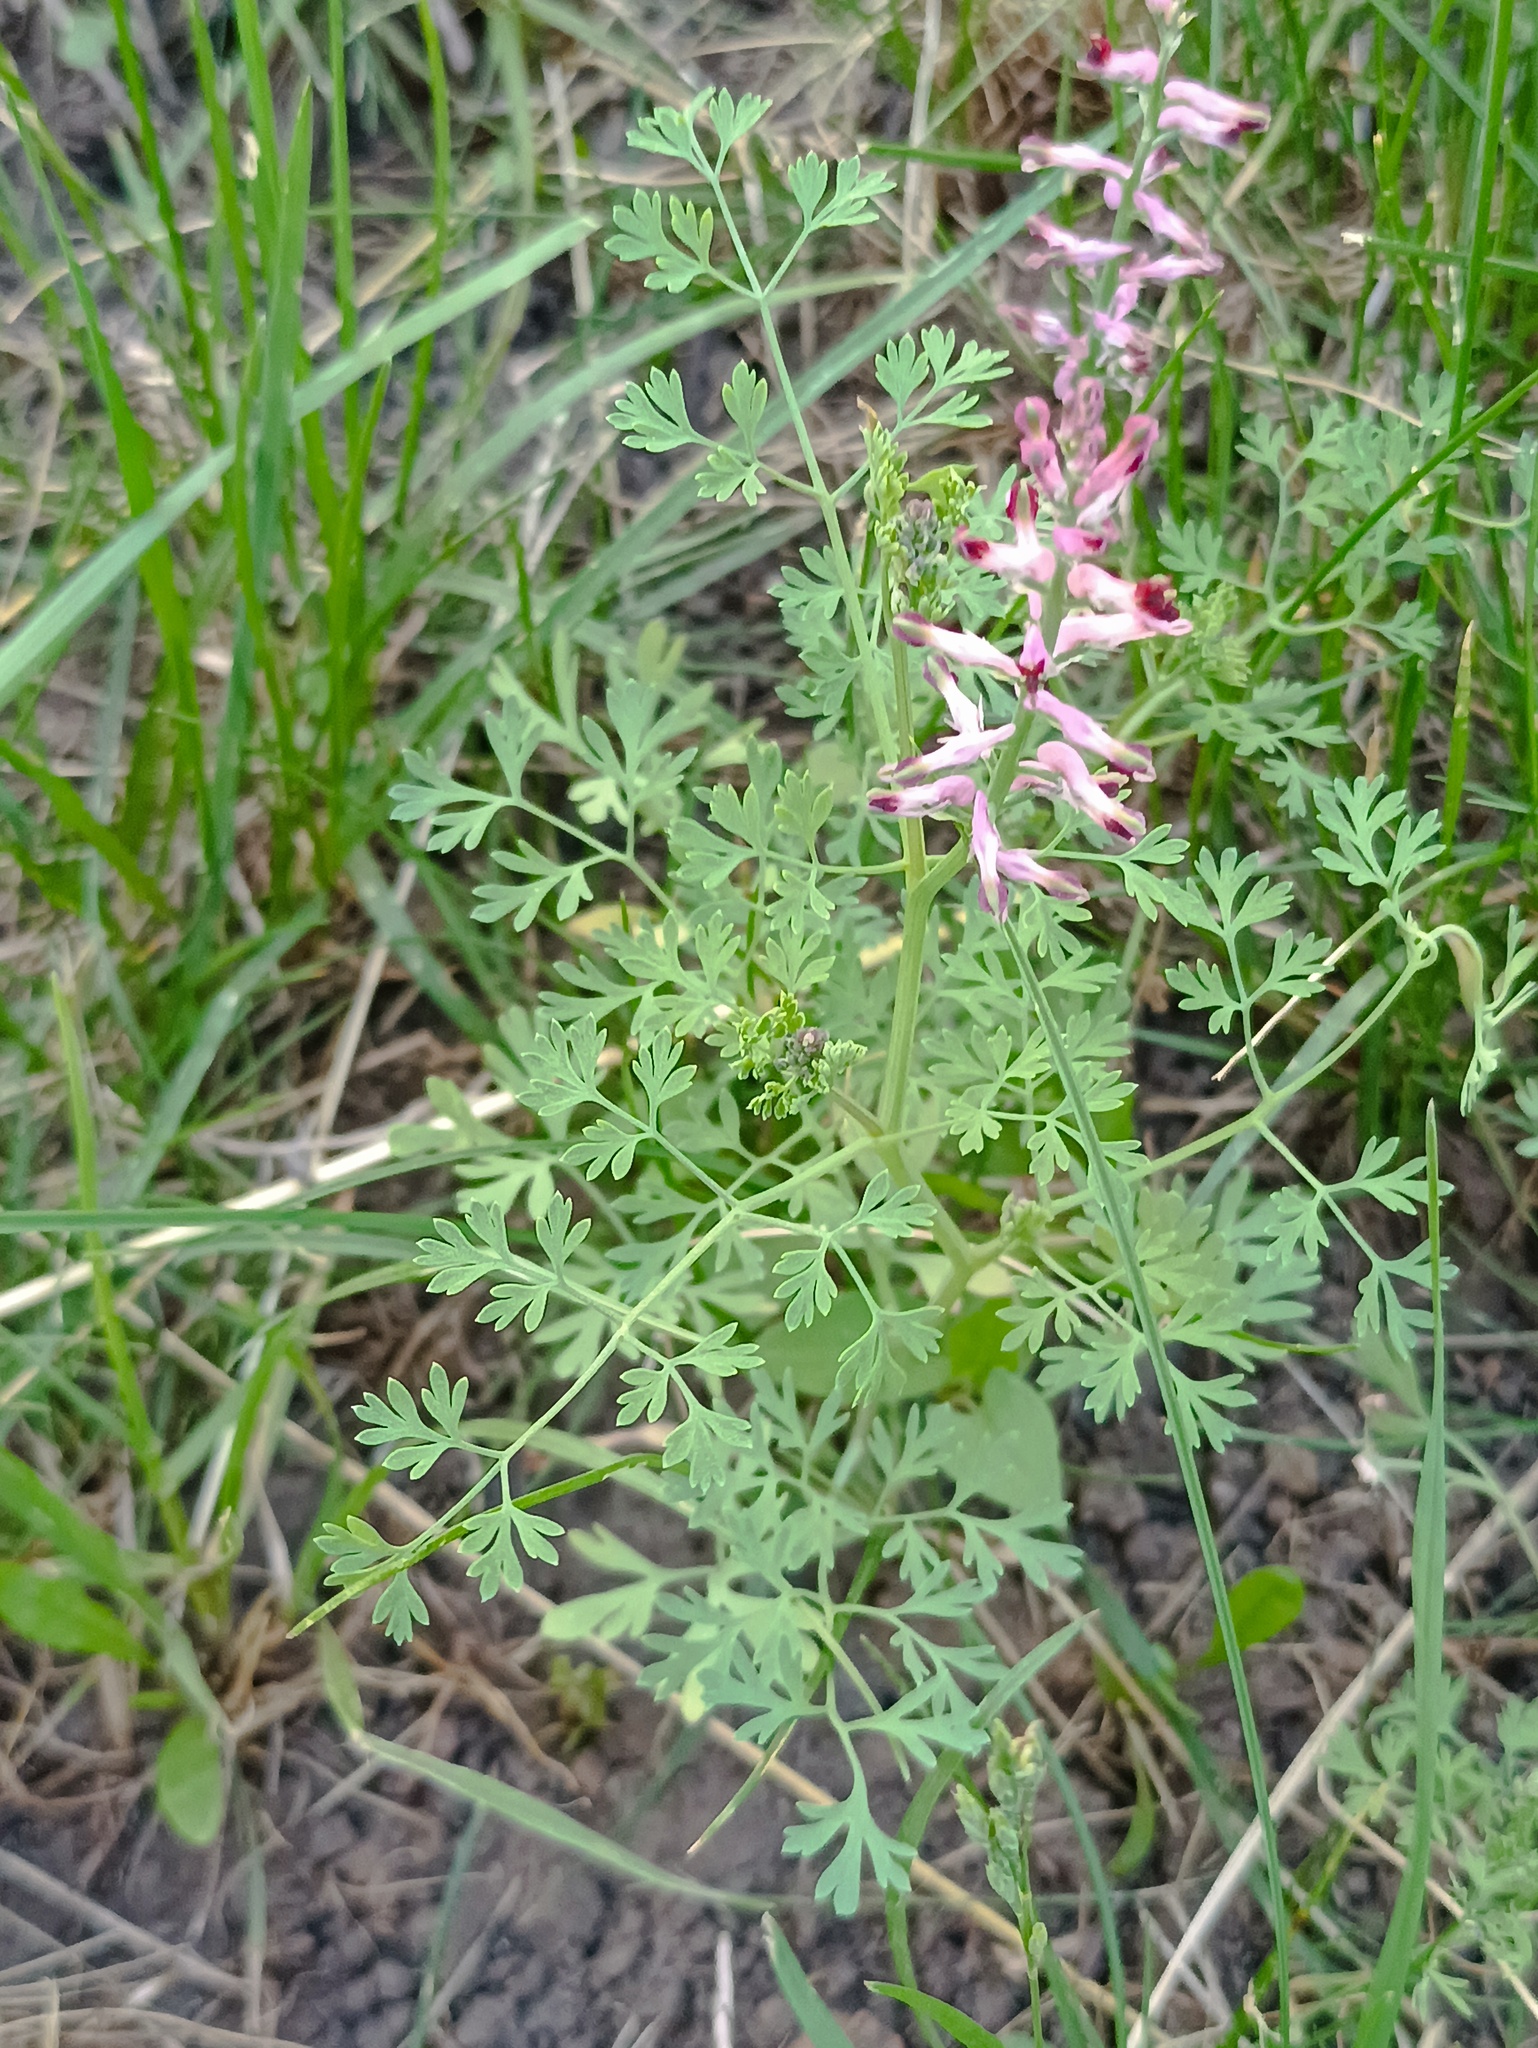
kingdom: Plantae
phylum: Tracheophyta
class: Magnoliopsida
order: Ranunculales
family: Papaveraceae
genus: Fumaria
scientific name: Fumaria officinalis
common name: Common fumitory
